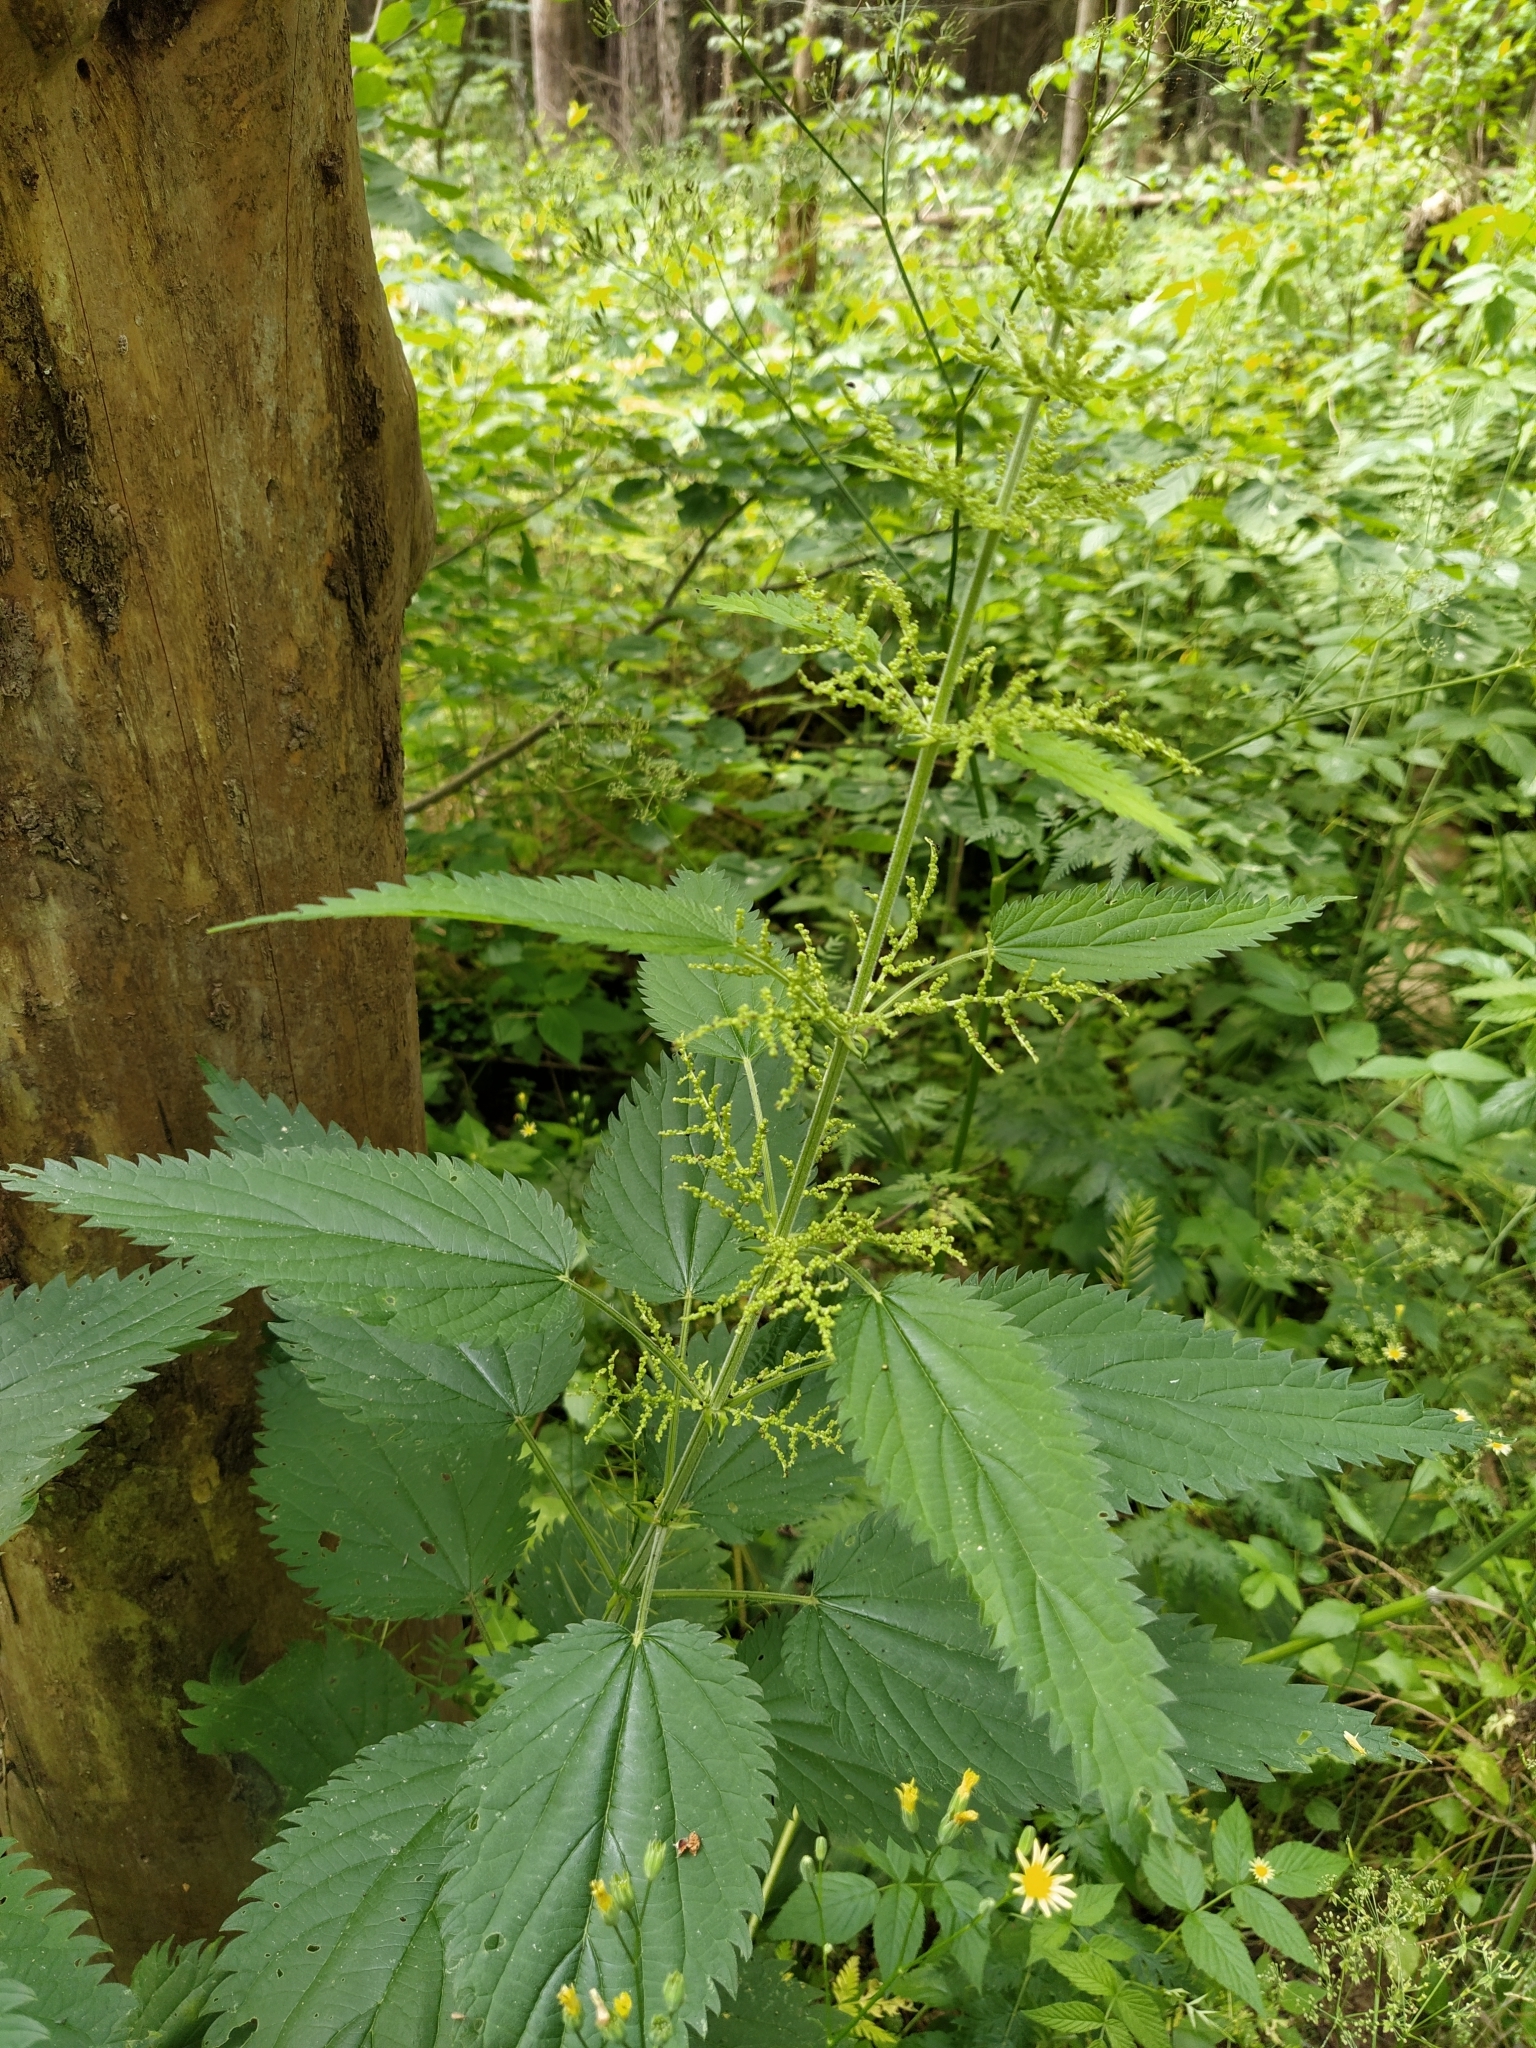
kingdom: Plantae
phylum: Tracheophyta
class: Magnoliopsida
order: Rosales
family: Urticaceae
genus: Urtica
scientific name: Urtica dioica
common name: Common nettle
